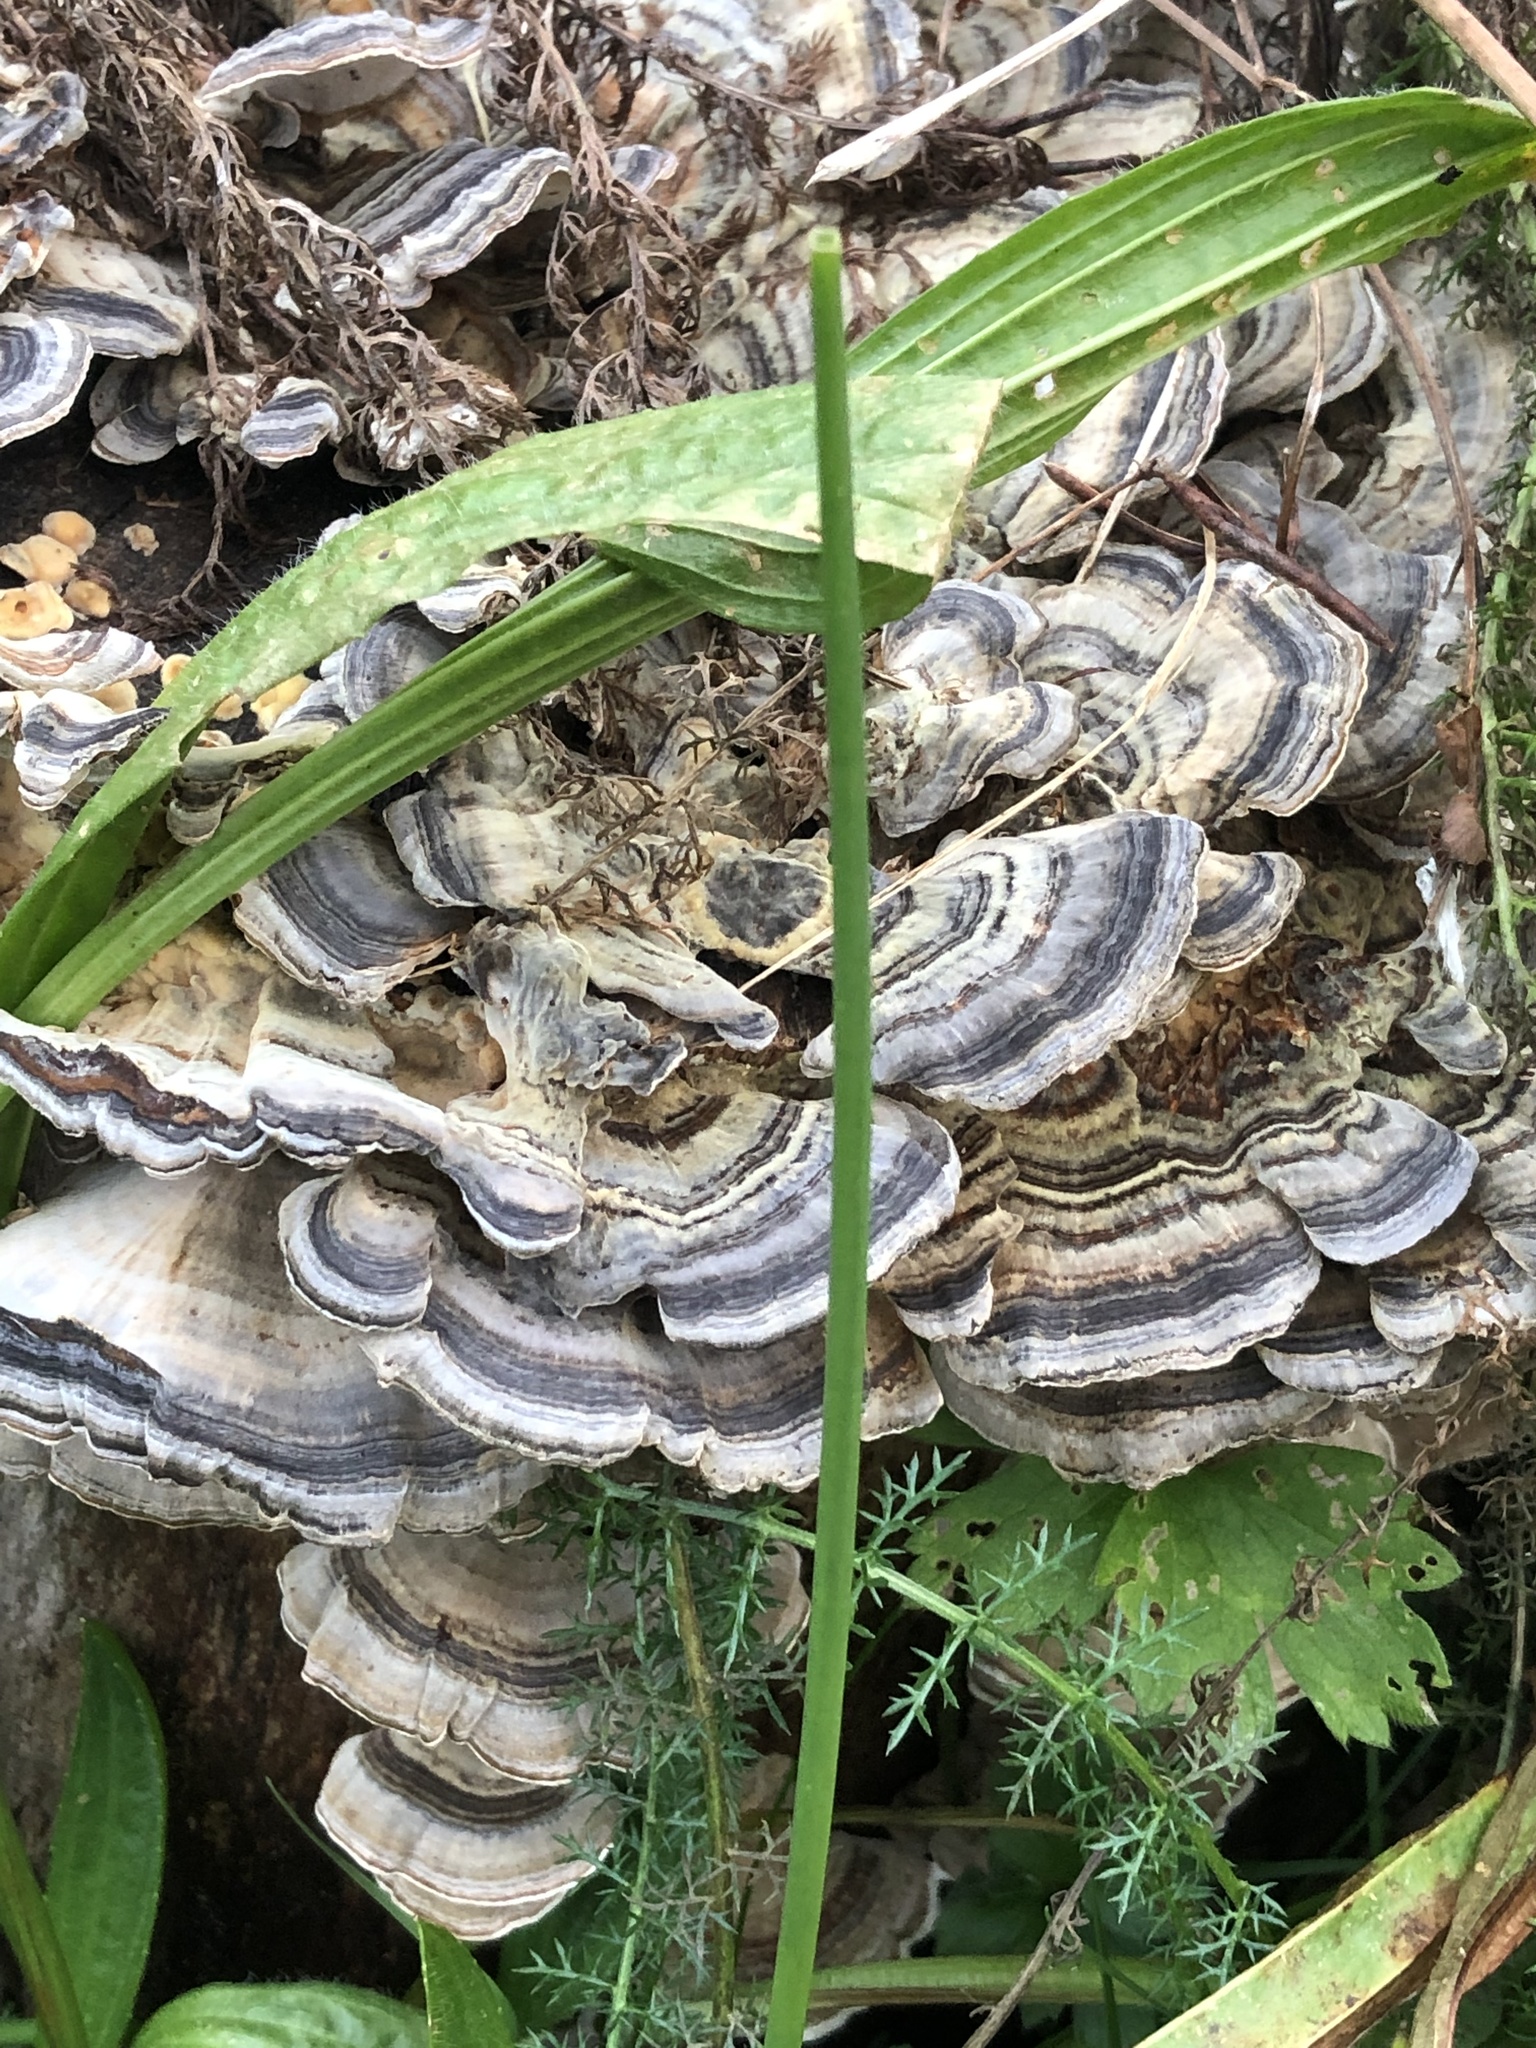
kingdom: Fungi
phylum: Basidiomycota
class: Agaricomycetes
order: Polyporales
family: Polyporaceae
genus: Trametes
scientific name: Trametes versicolor
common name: Turkeytail
